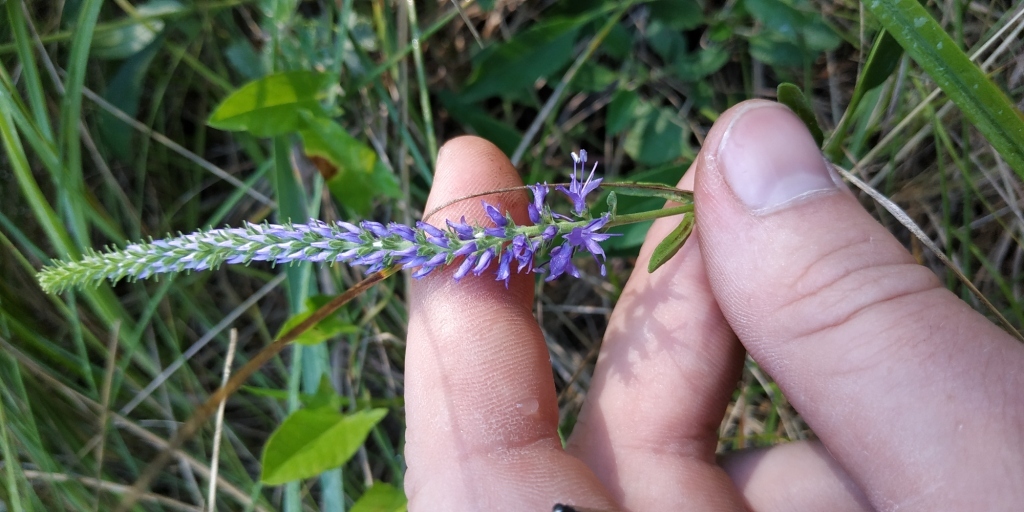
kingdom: Plantae
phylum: Tracheophyta
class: Magnoliopsida
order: Lamiales
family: Plantaginaceae
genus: Veronica
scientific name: Veronica spicata
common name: Spiked speedwell
